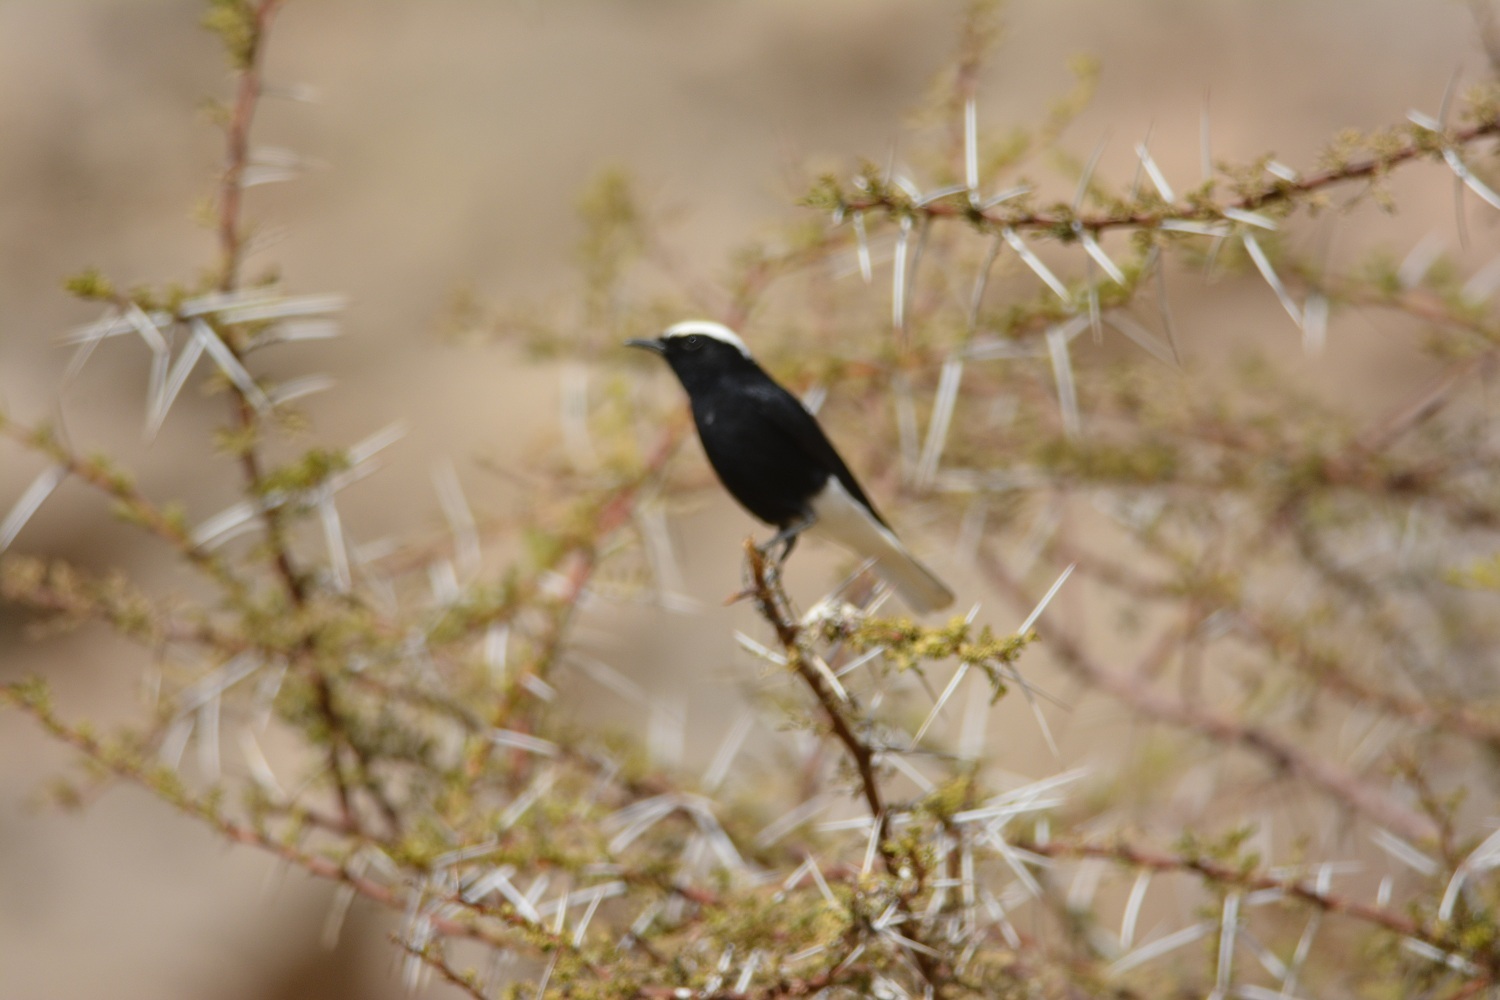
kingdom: Animalia
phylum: Chordata
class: Aves
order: Passeriformes
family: Muscicapidae
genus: Oenanthe
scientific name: Oenanthe leucopyga
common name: White-crowned wheatear
